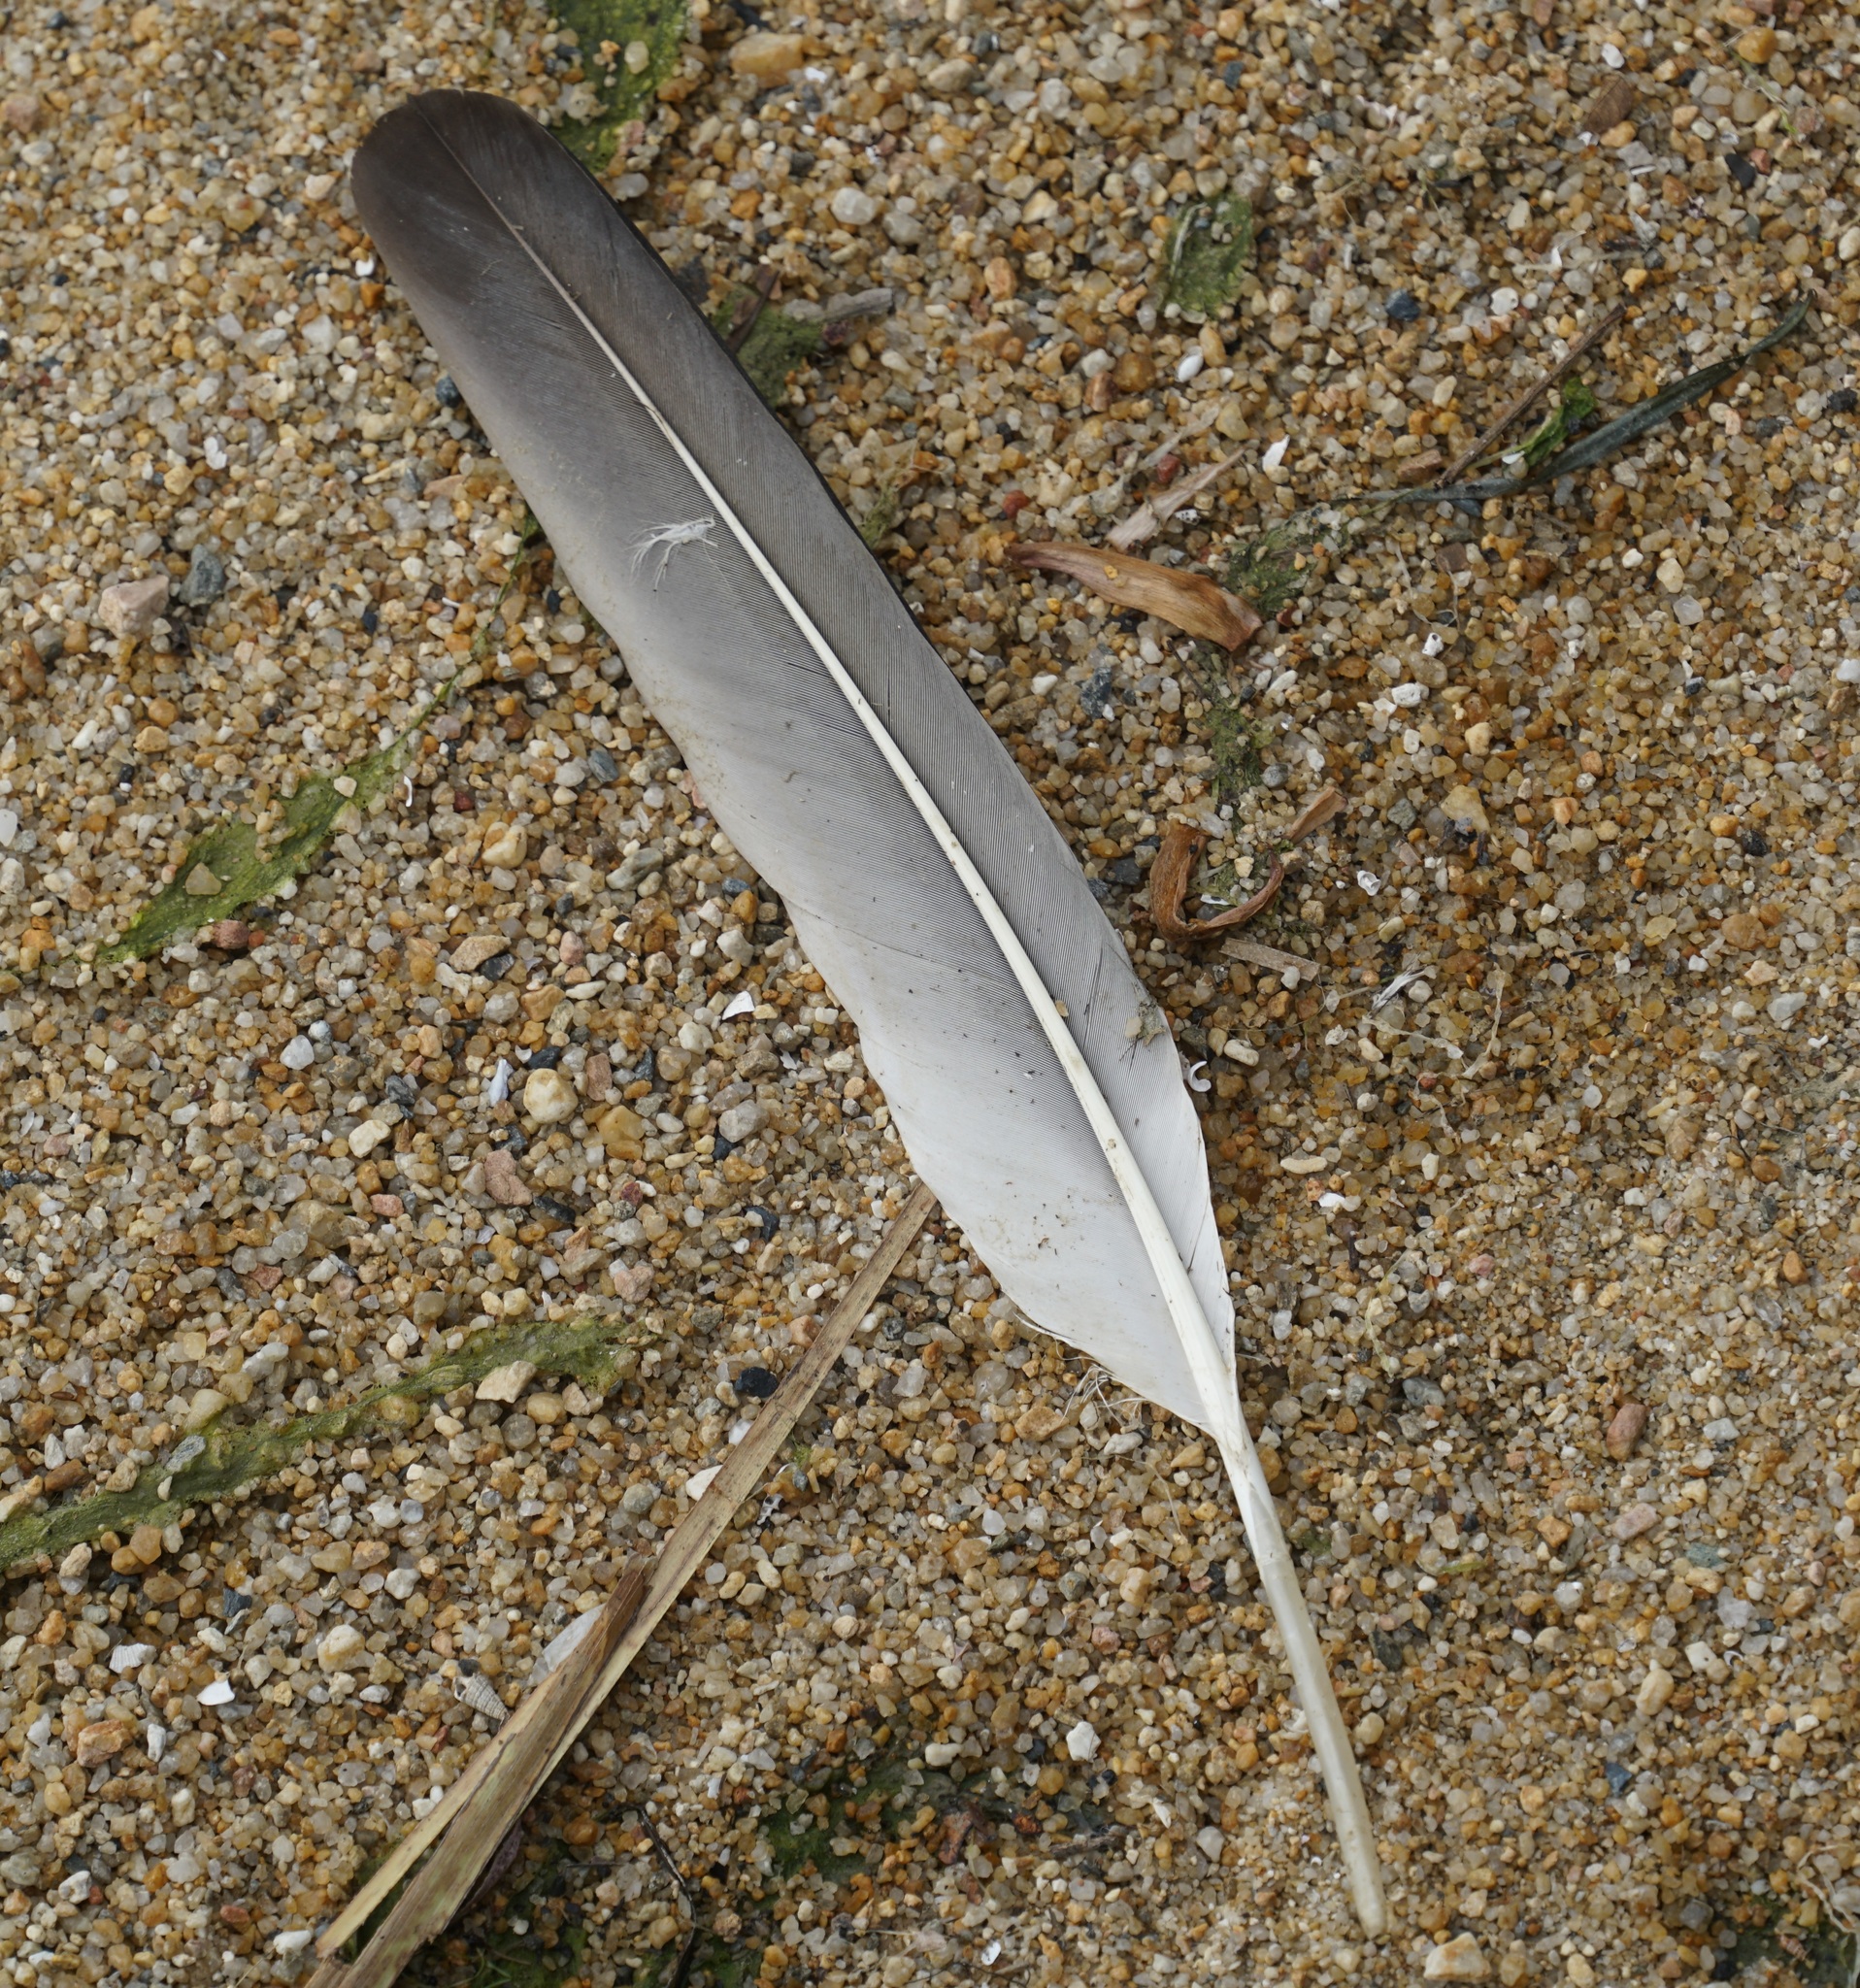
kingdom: Animalia
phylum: Chordata
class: Aves
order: Pelecaniformes
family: Pelecanidae
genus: Pelecanus
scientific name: Pelecanus conspicillatus
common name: Australian pelican
